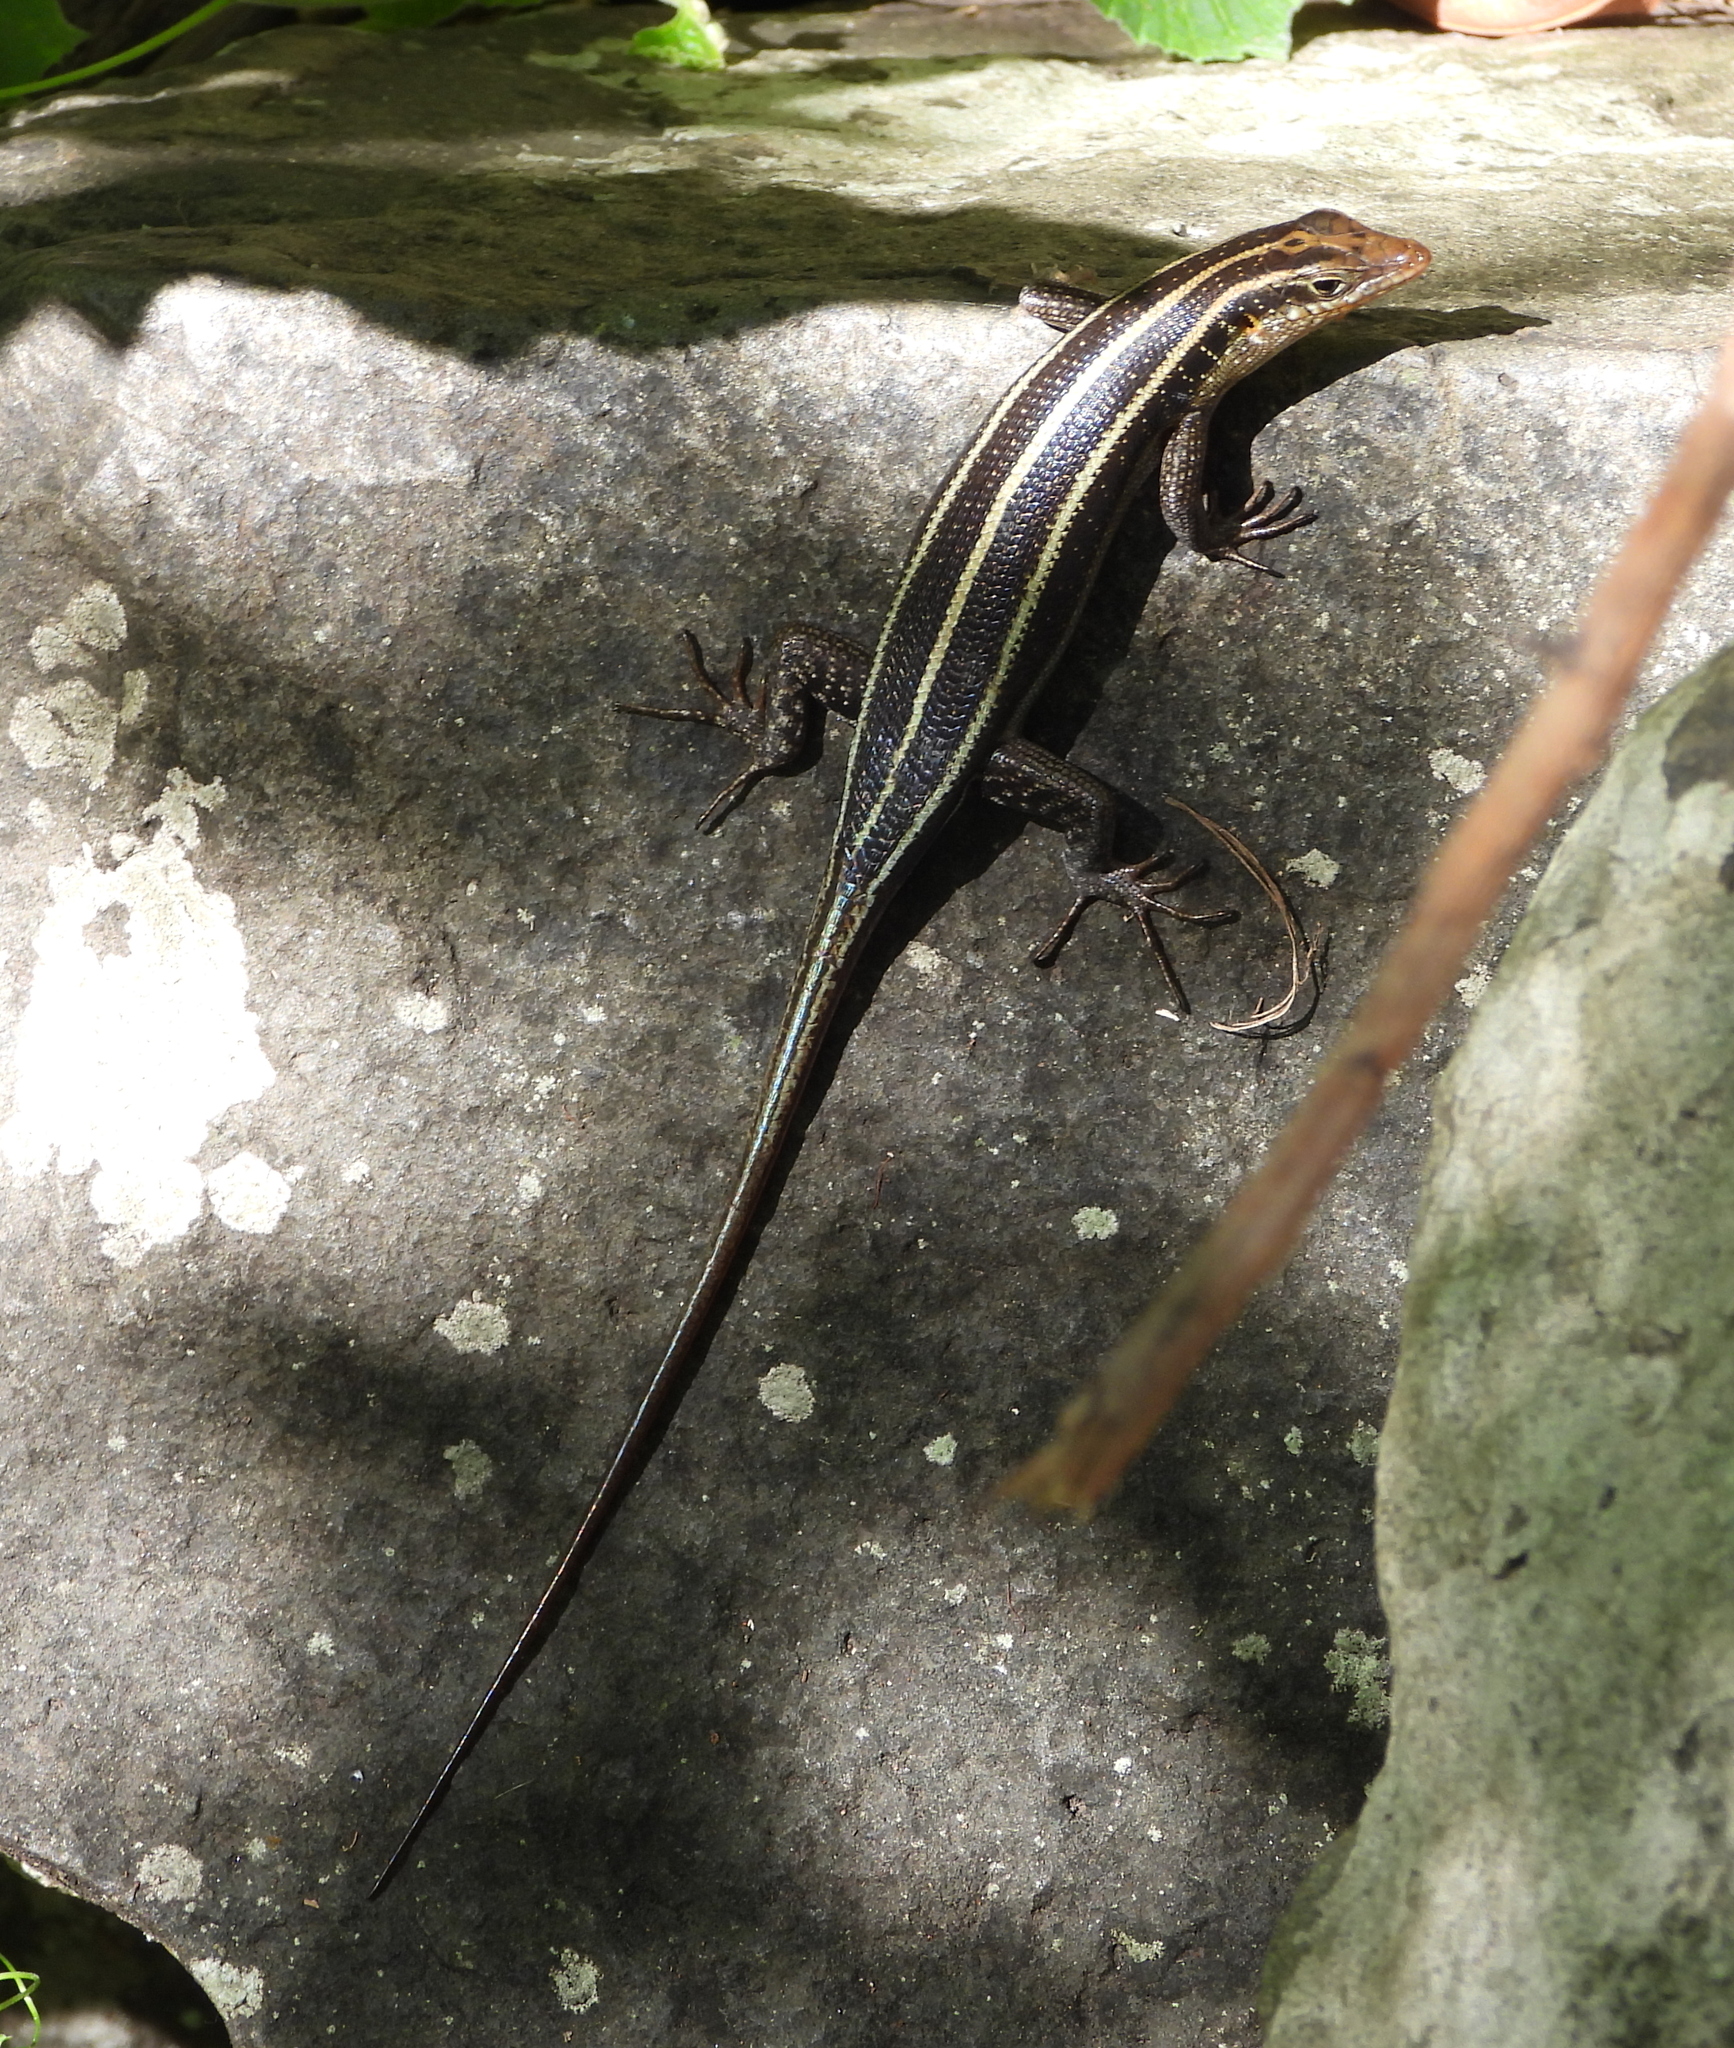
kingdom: Animalia
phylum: Chordata
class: Squamata
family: Scincidae
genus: Trachylepis
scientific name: Trachylepis margaritifera
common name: Rainbow skink
